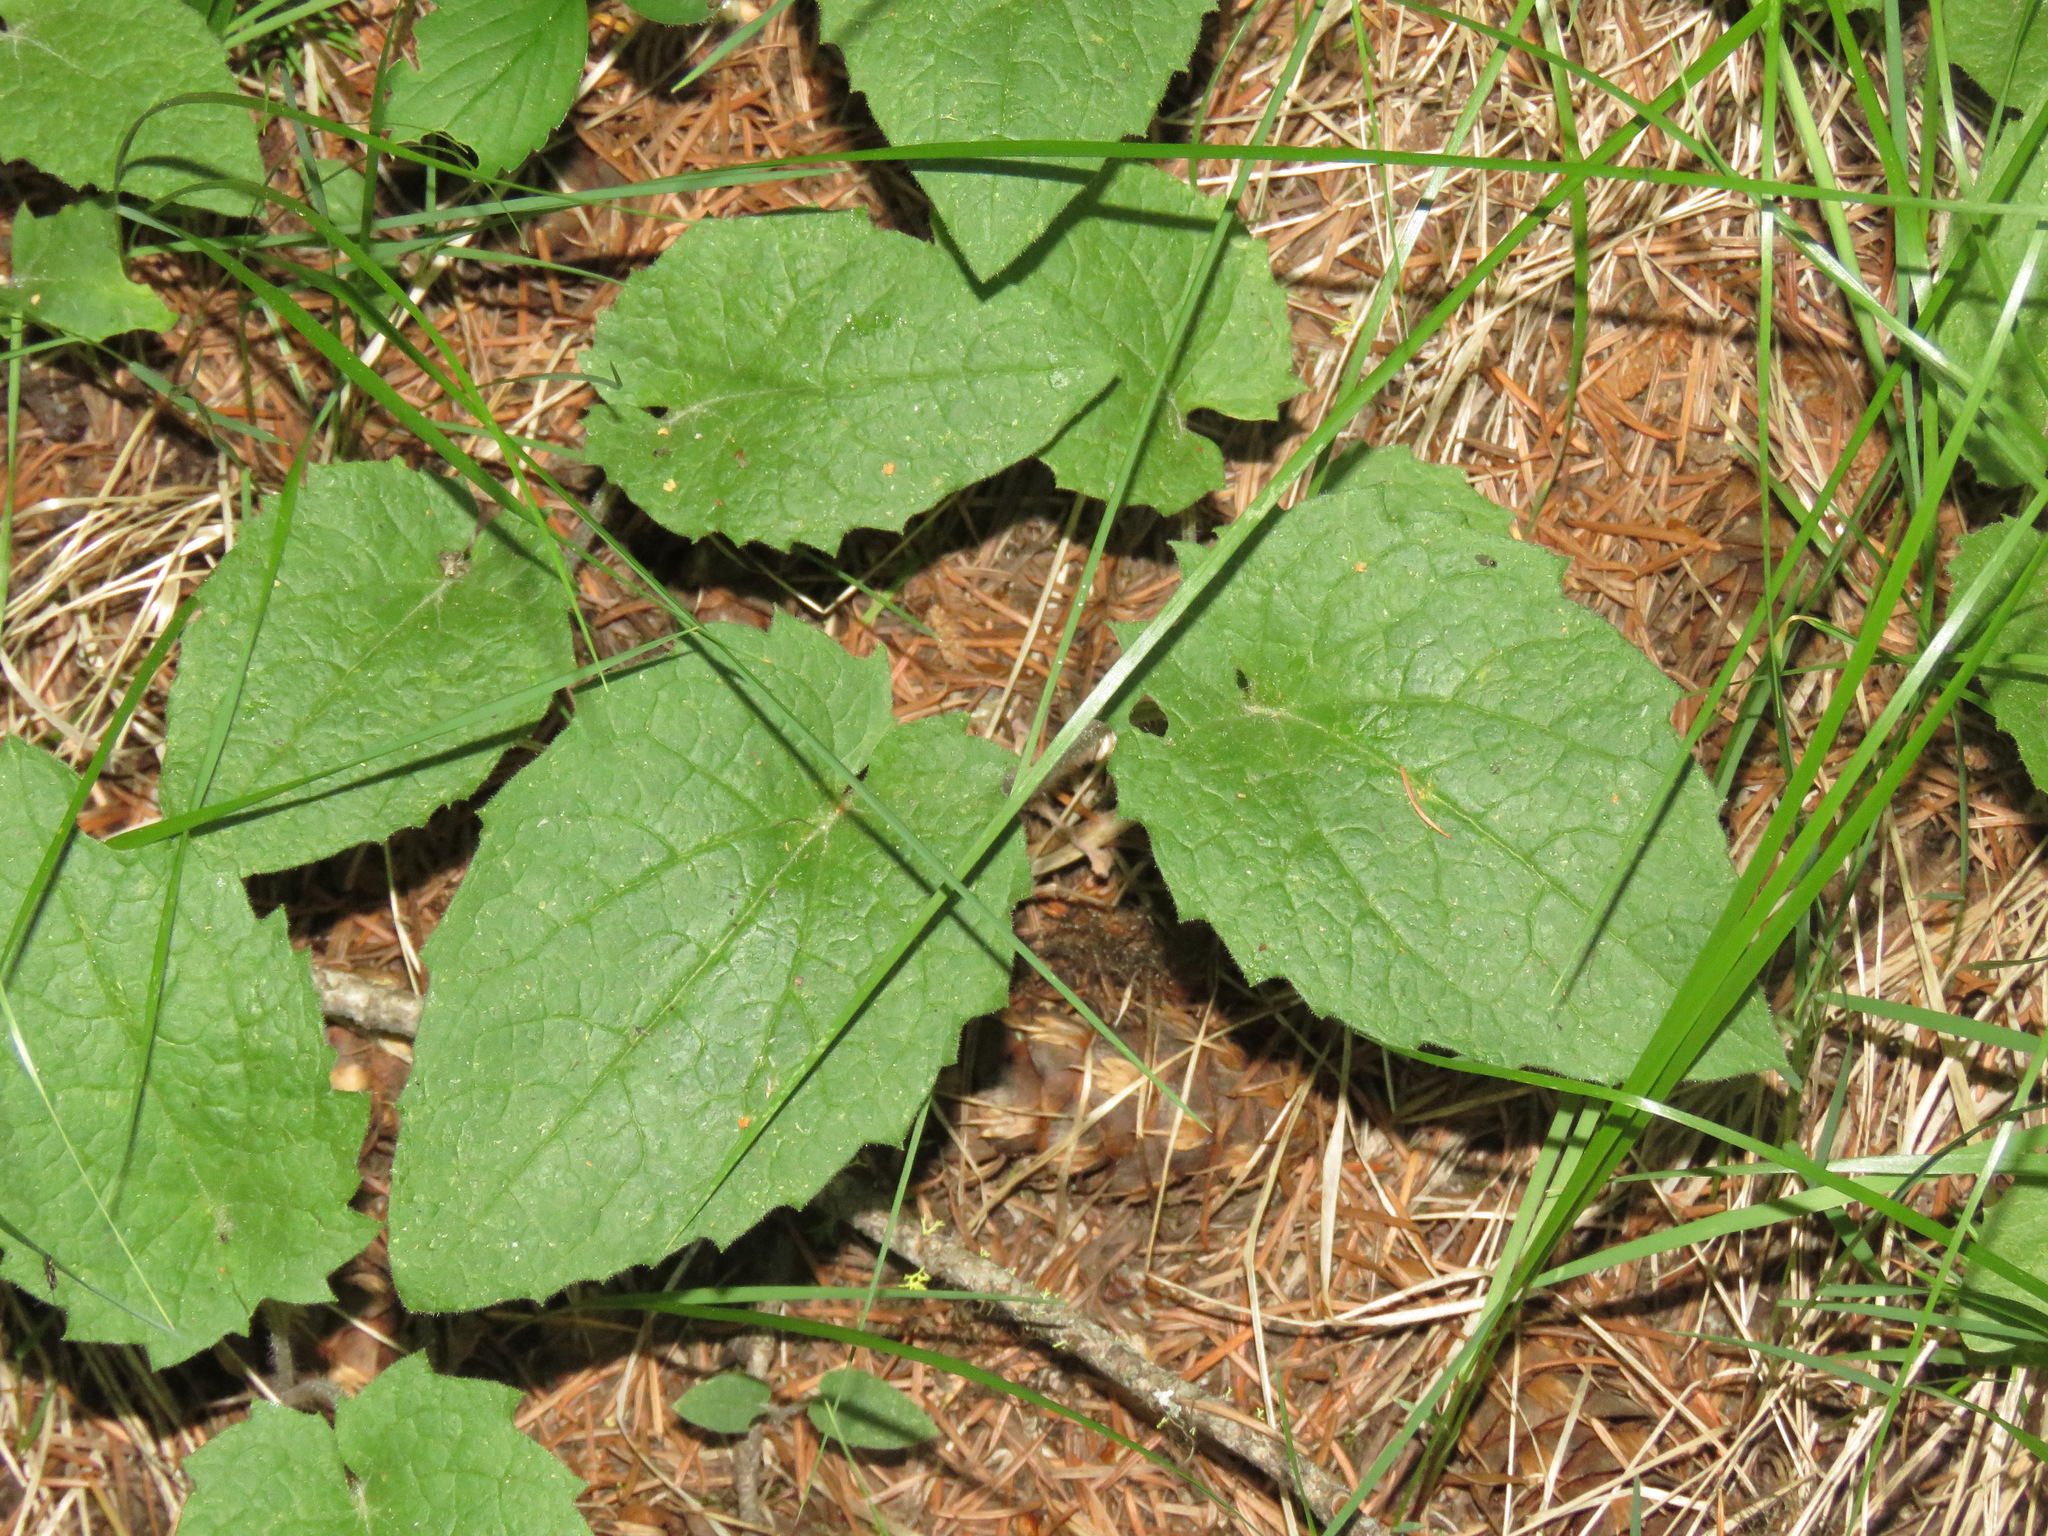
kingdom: Plantae
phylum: Tracheophyta
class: Magnoliopsida
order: Asterales
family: Asteraceae
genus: Arnica
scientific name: Arnica cordifolia
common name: Heart-leaf arnica
